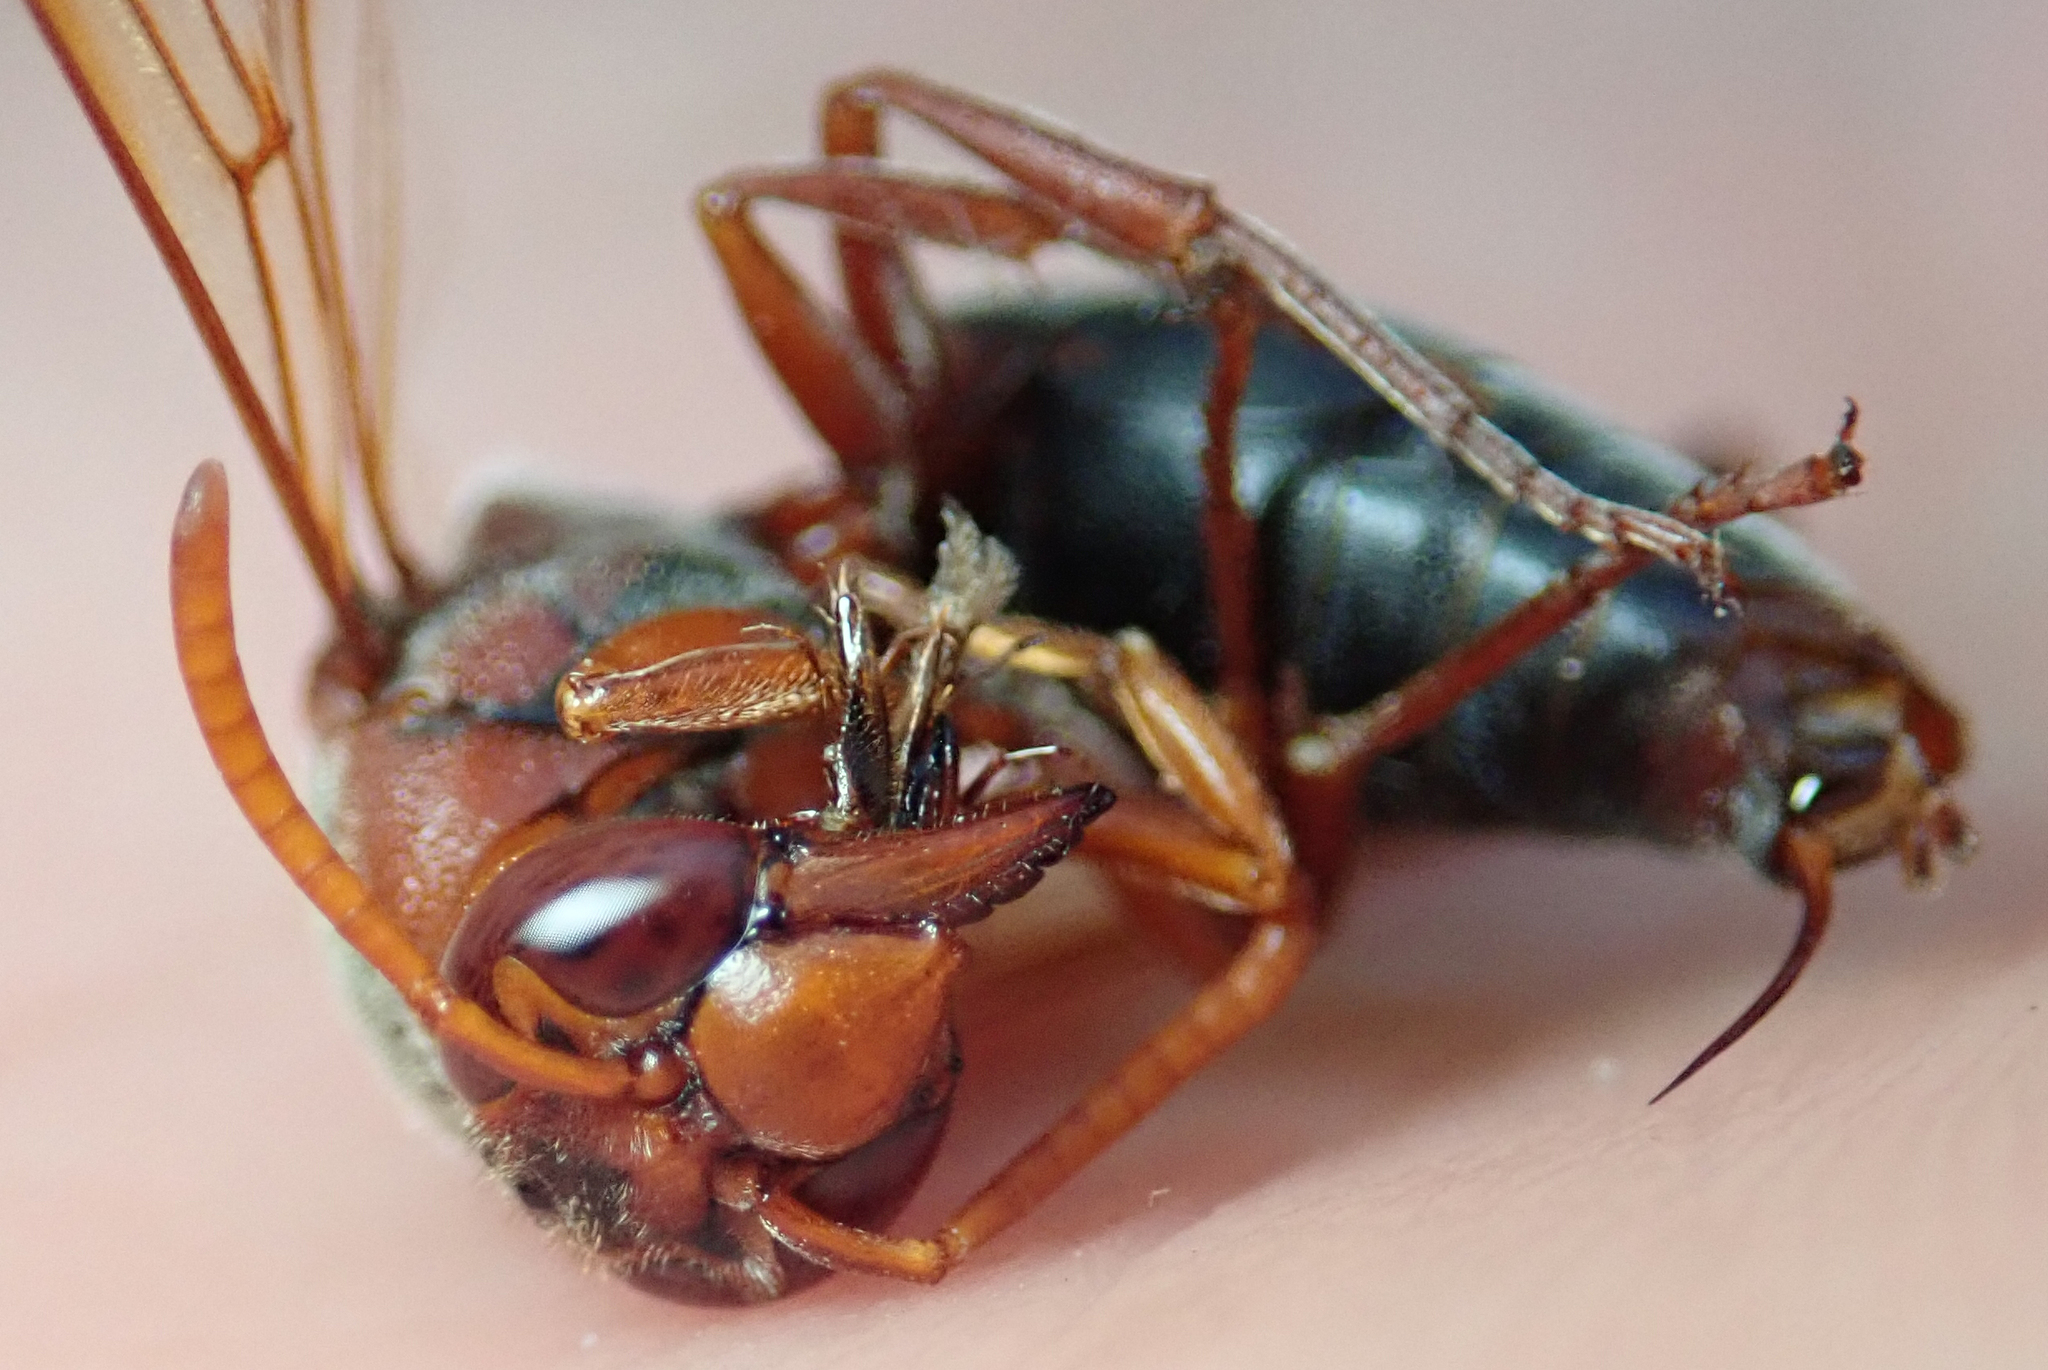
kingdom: Animalia
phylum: Arthropoda
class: Insecta
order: Hymenoptera
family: Eumenidae
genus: Rhynchium
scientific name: Rhynchium
